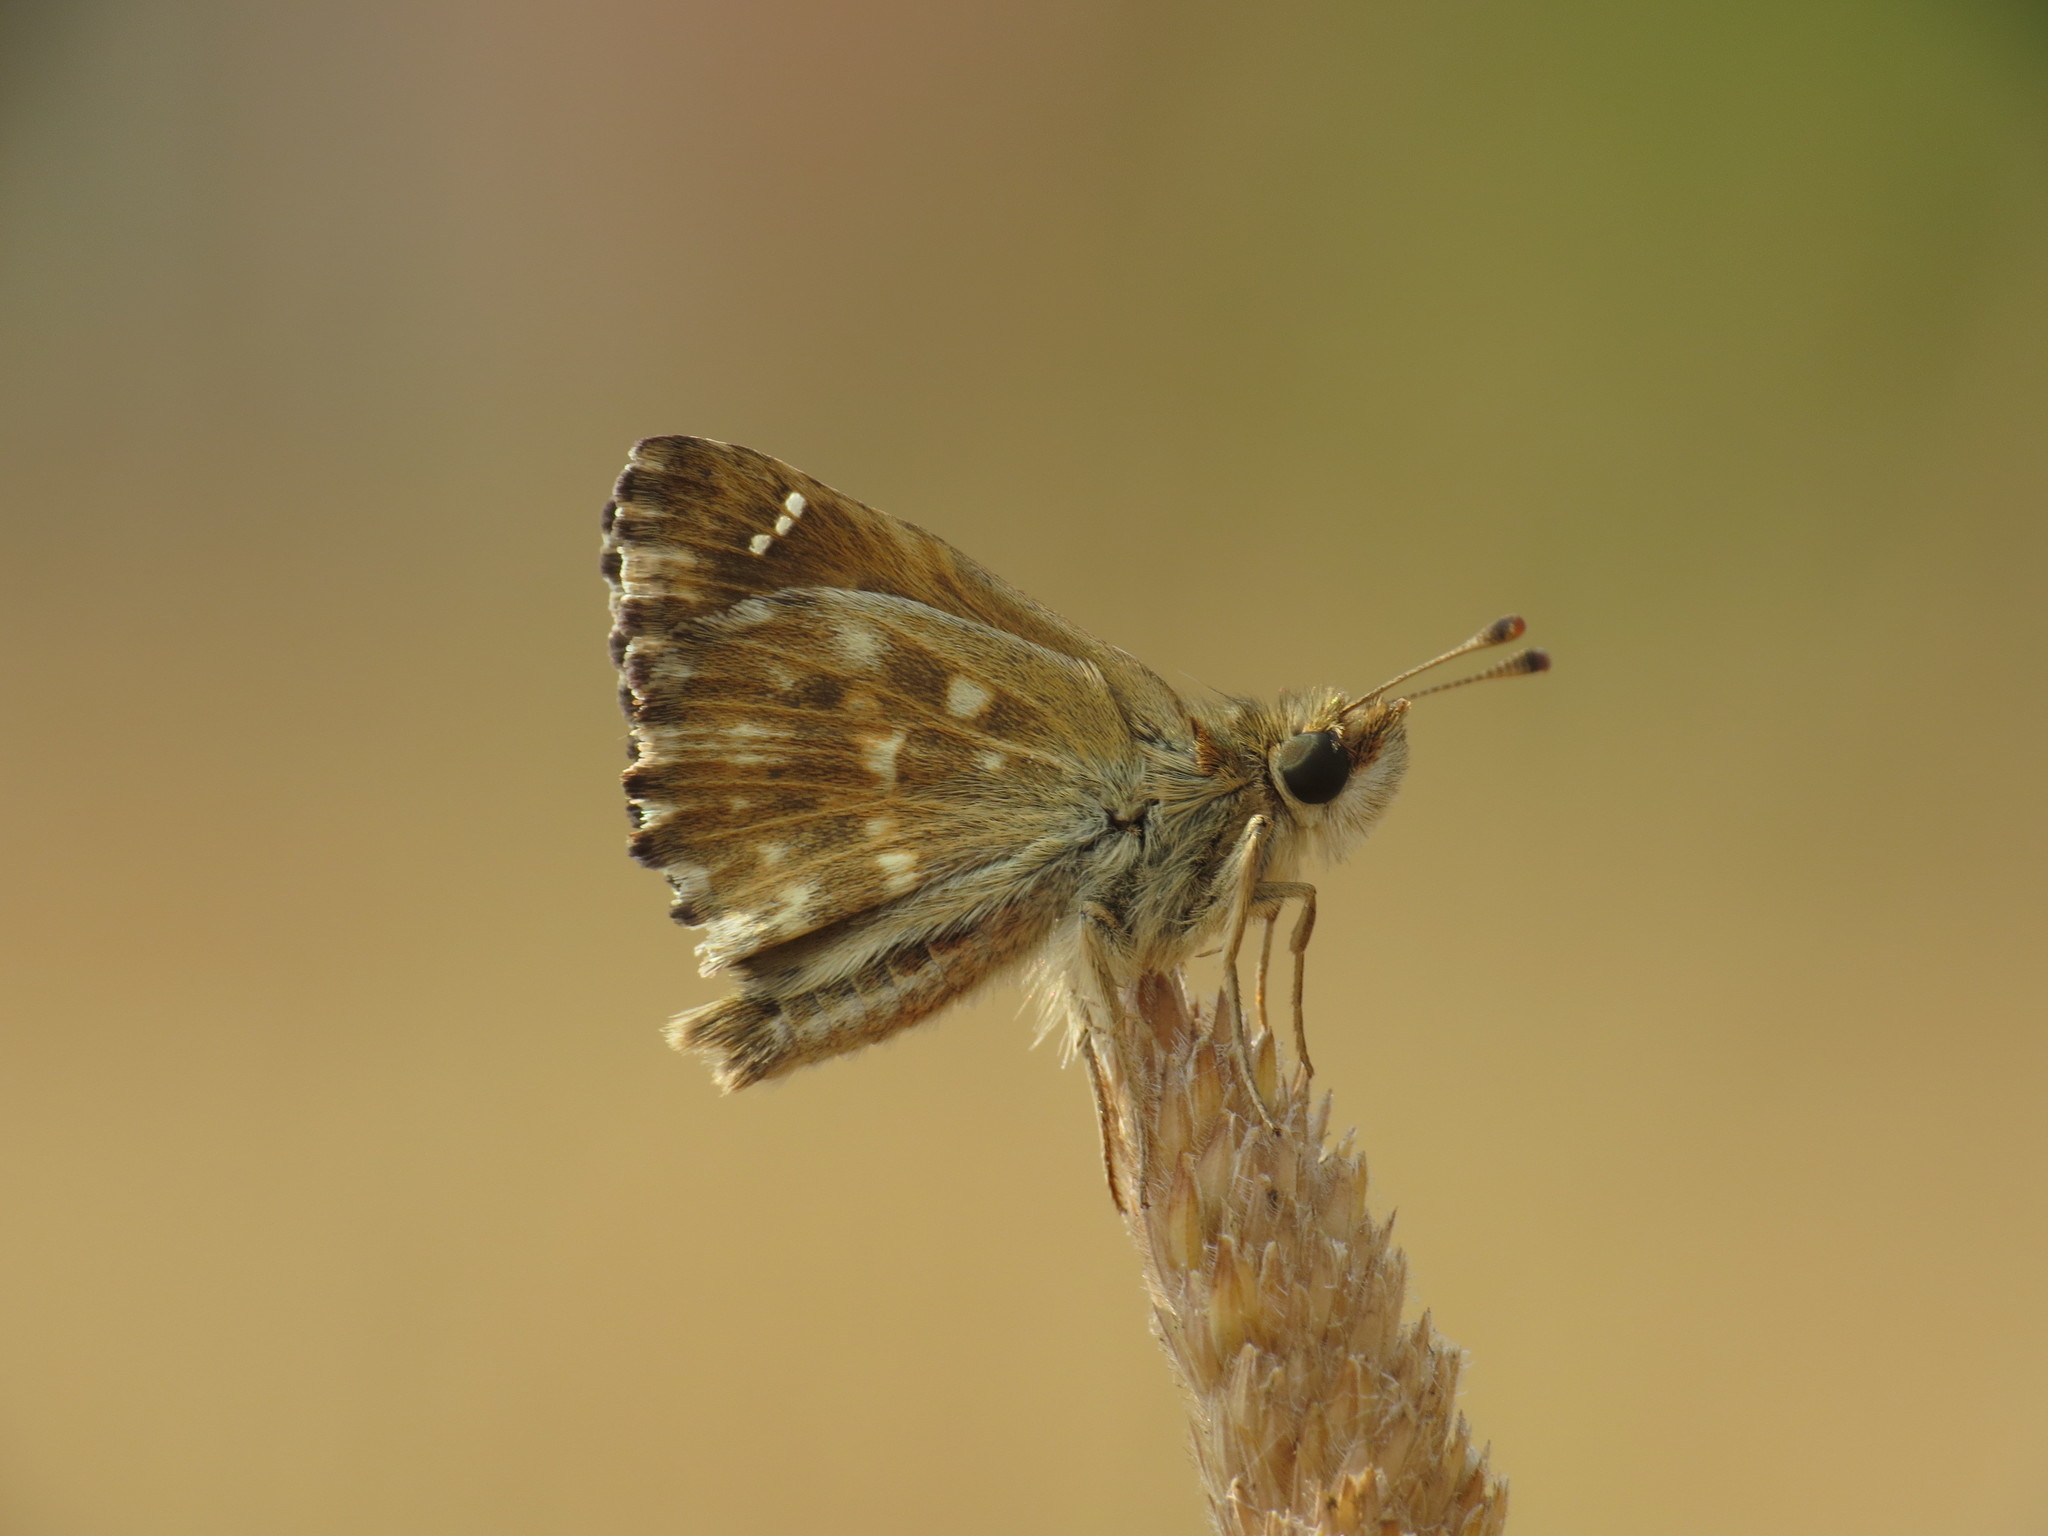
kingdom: Animalia
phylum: Arthropoda
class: Insecta
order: Lepidoptera
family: Hesperiidae
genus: Carcharodus
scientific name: Carcharodus alceae
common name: Mallow skipper
